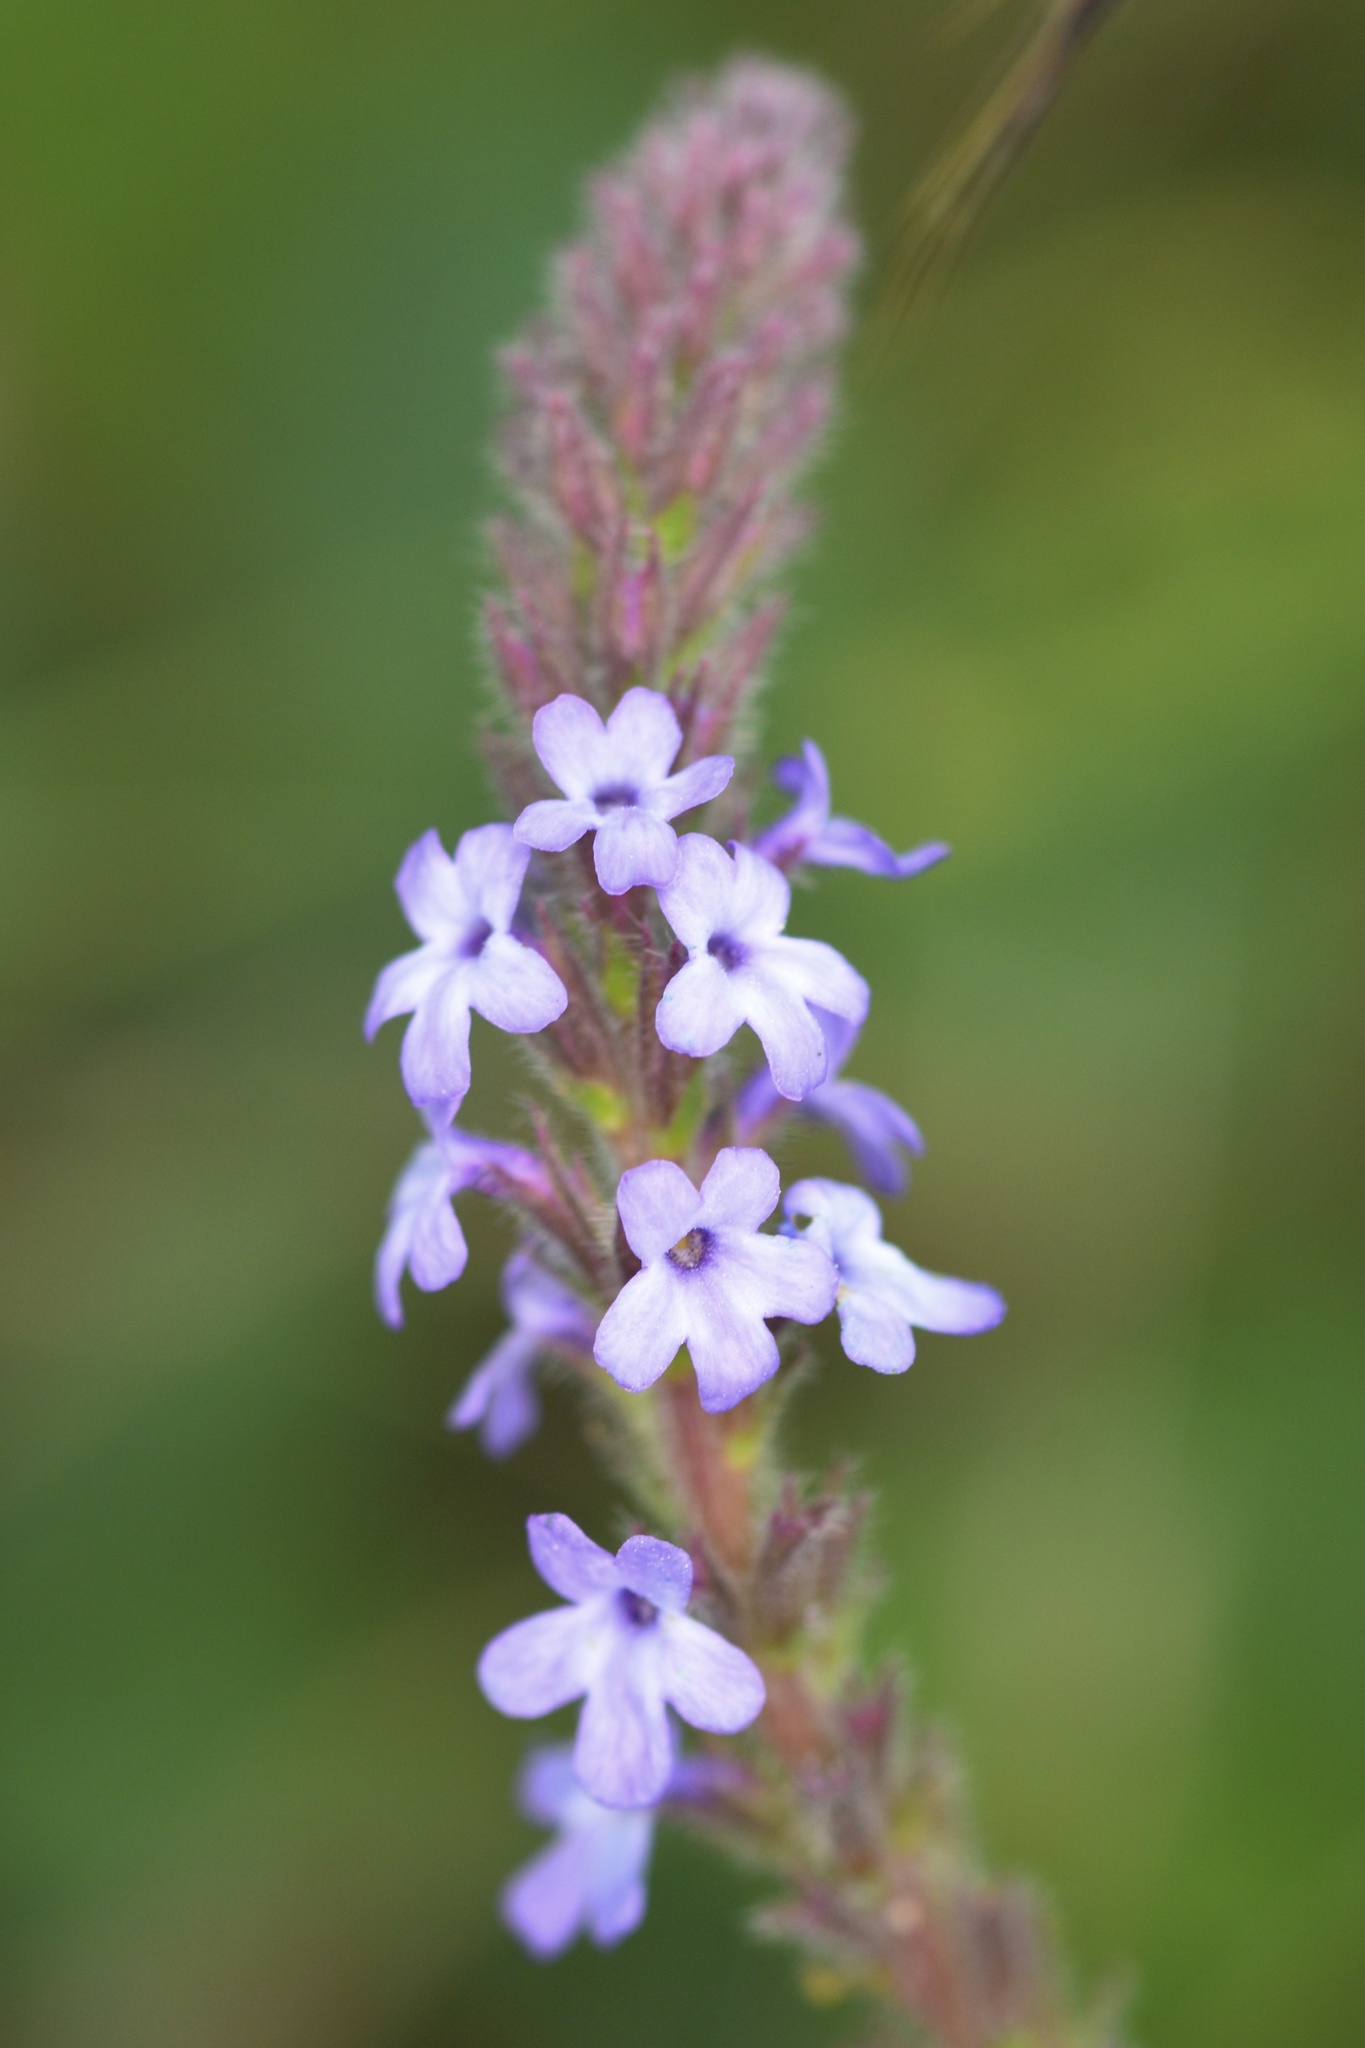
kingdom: Plantae
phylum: Tracheophyta
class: Magnoliopsida
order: Lamiales
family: Verbenaceae
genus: Verbena
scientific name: Verbena lasiostachys
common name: Vervain
